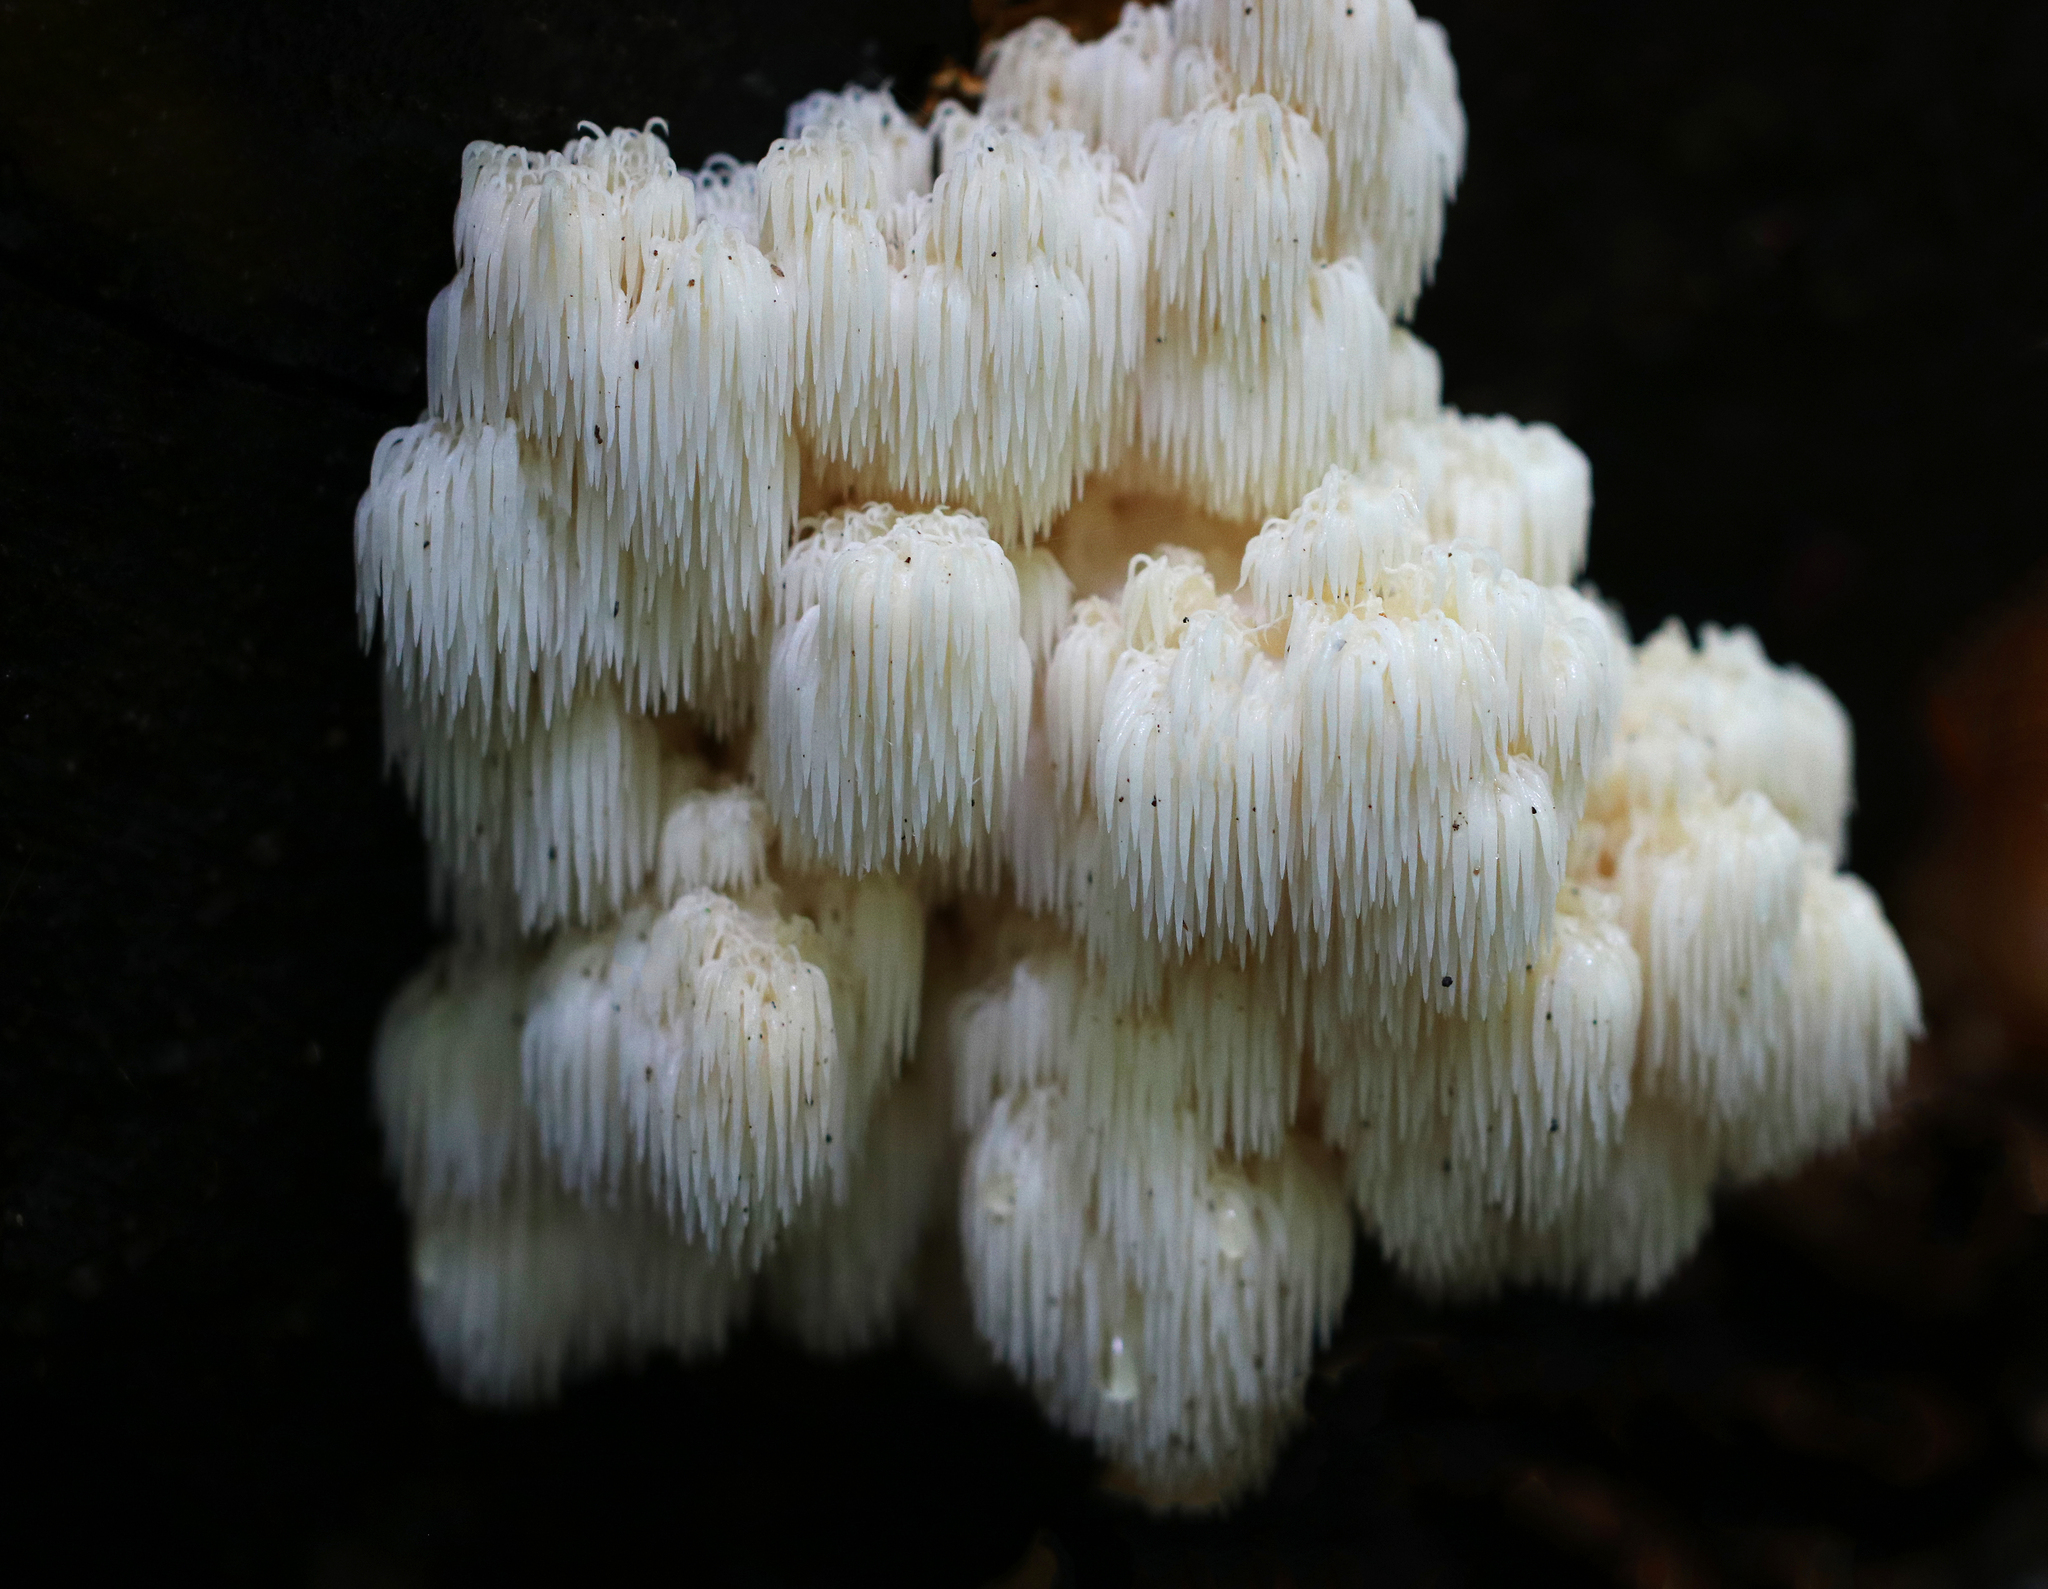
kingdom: Fungi
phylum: Basidiomycota
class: Agaricomycetes
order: Russulales
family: Hericiaceae
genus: Hericium
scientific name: Hericium americanum
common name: Bear's head tooth
